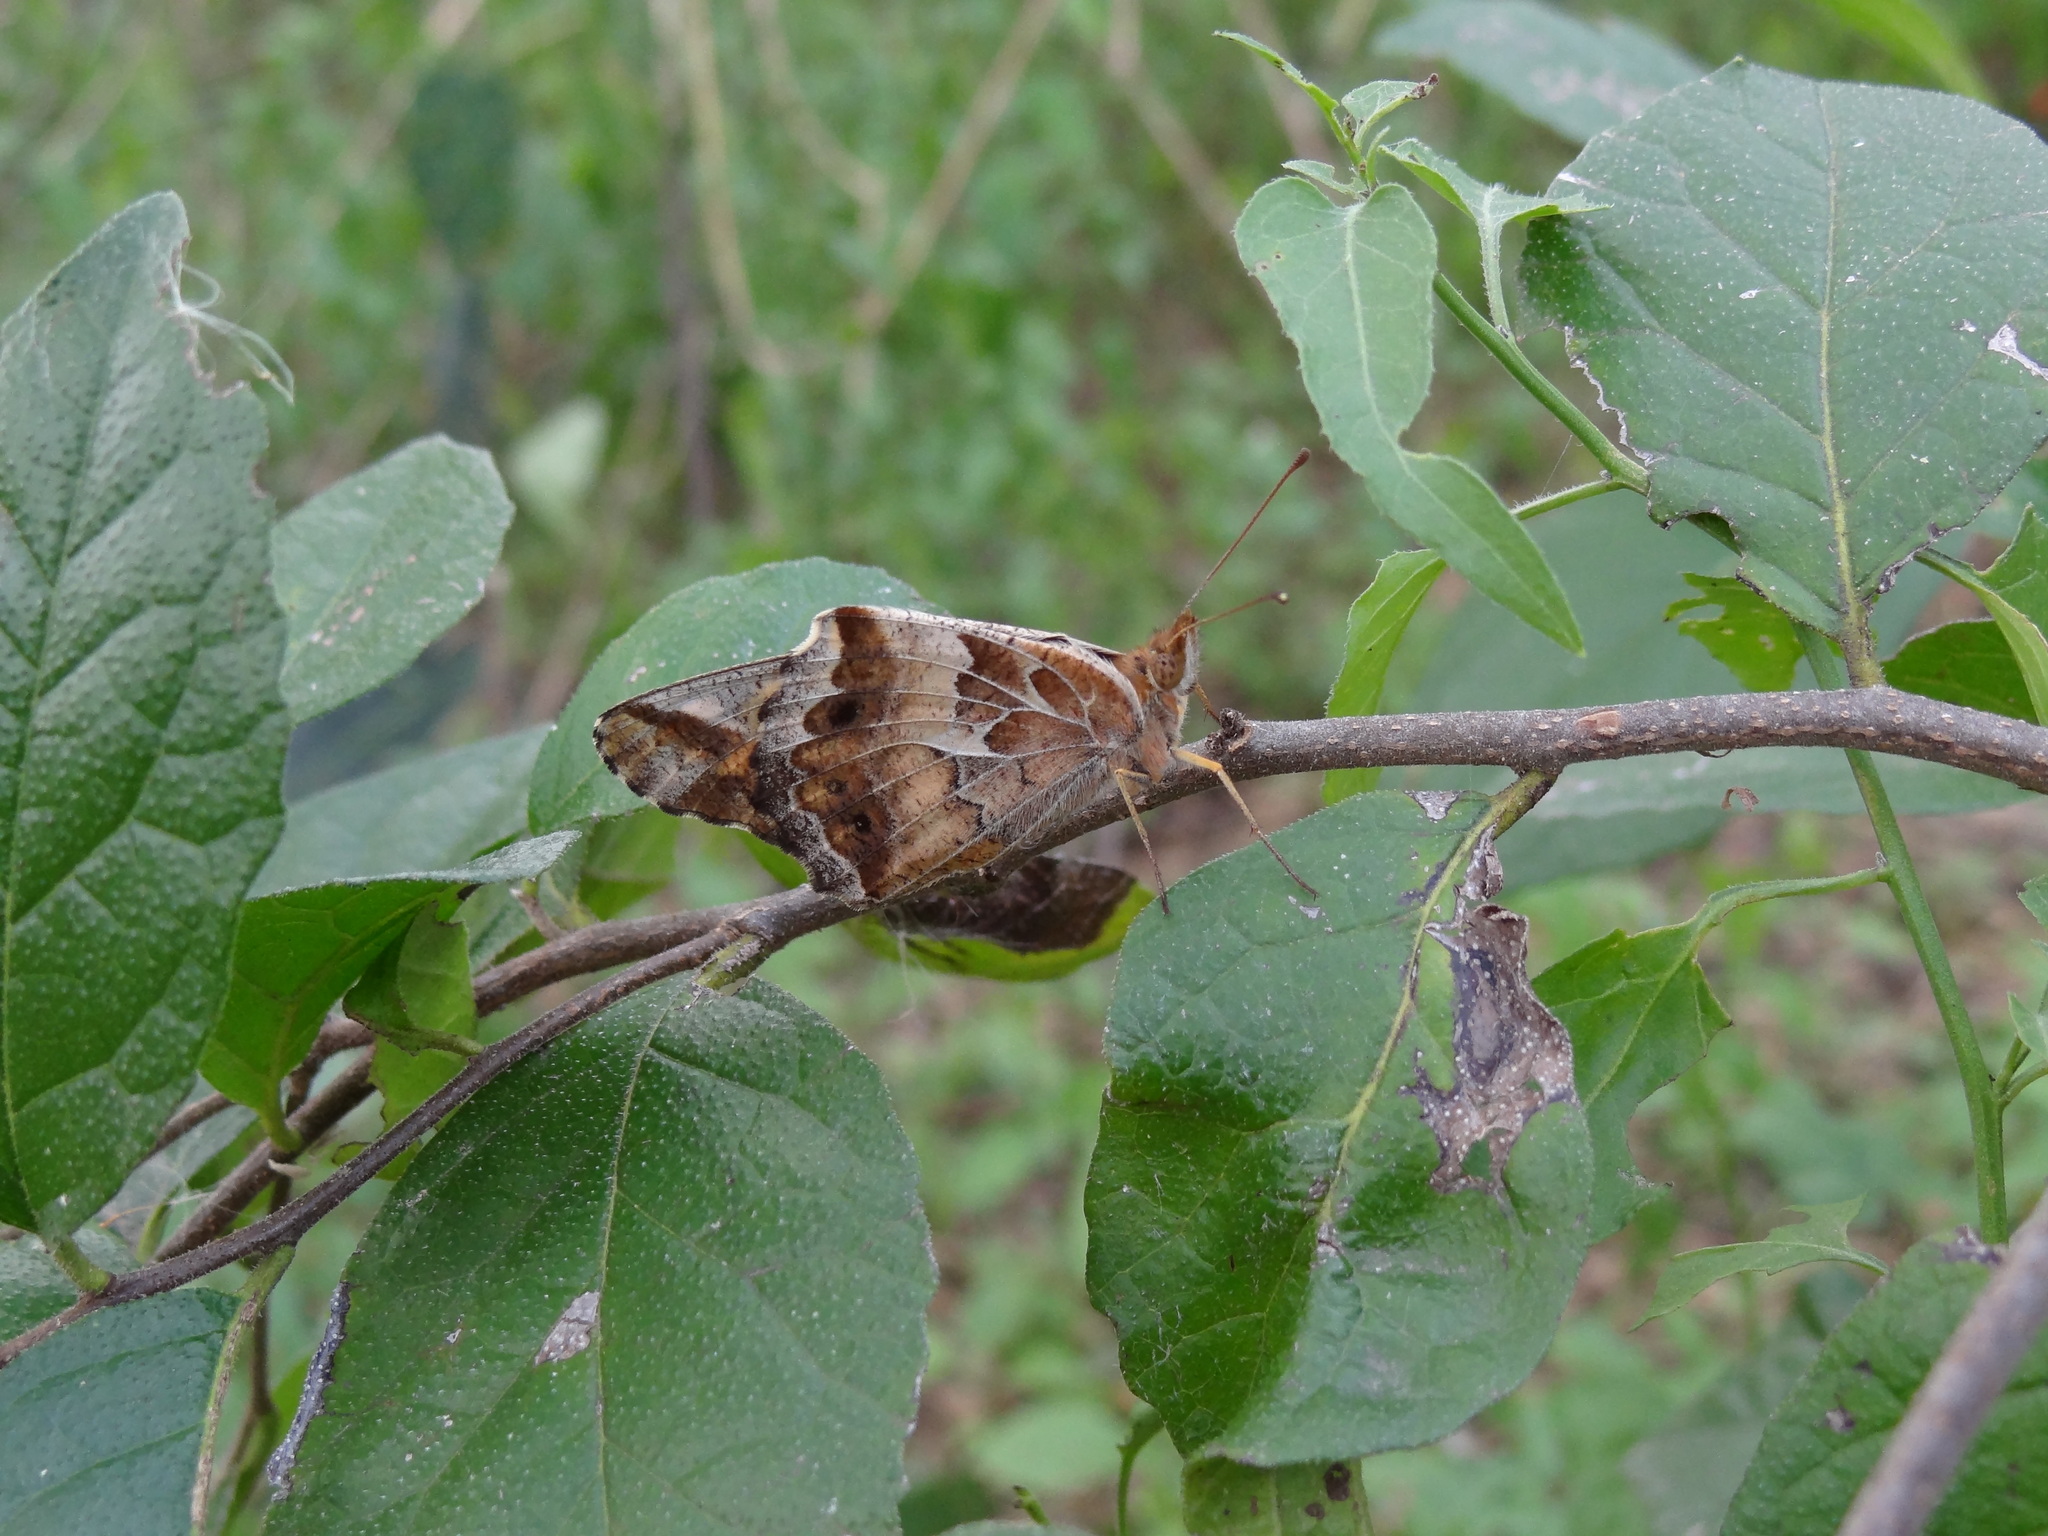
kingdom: Animalia
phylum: Arthropoda
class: Insecta
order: Lepidoptera
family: Nymphalidae
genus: Euptoieta
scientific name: Euptoieta claudia
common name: Variegated fritillary
